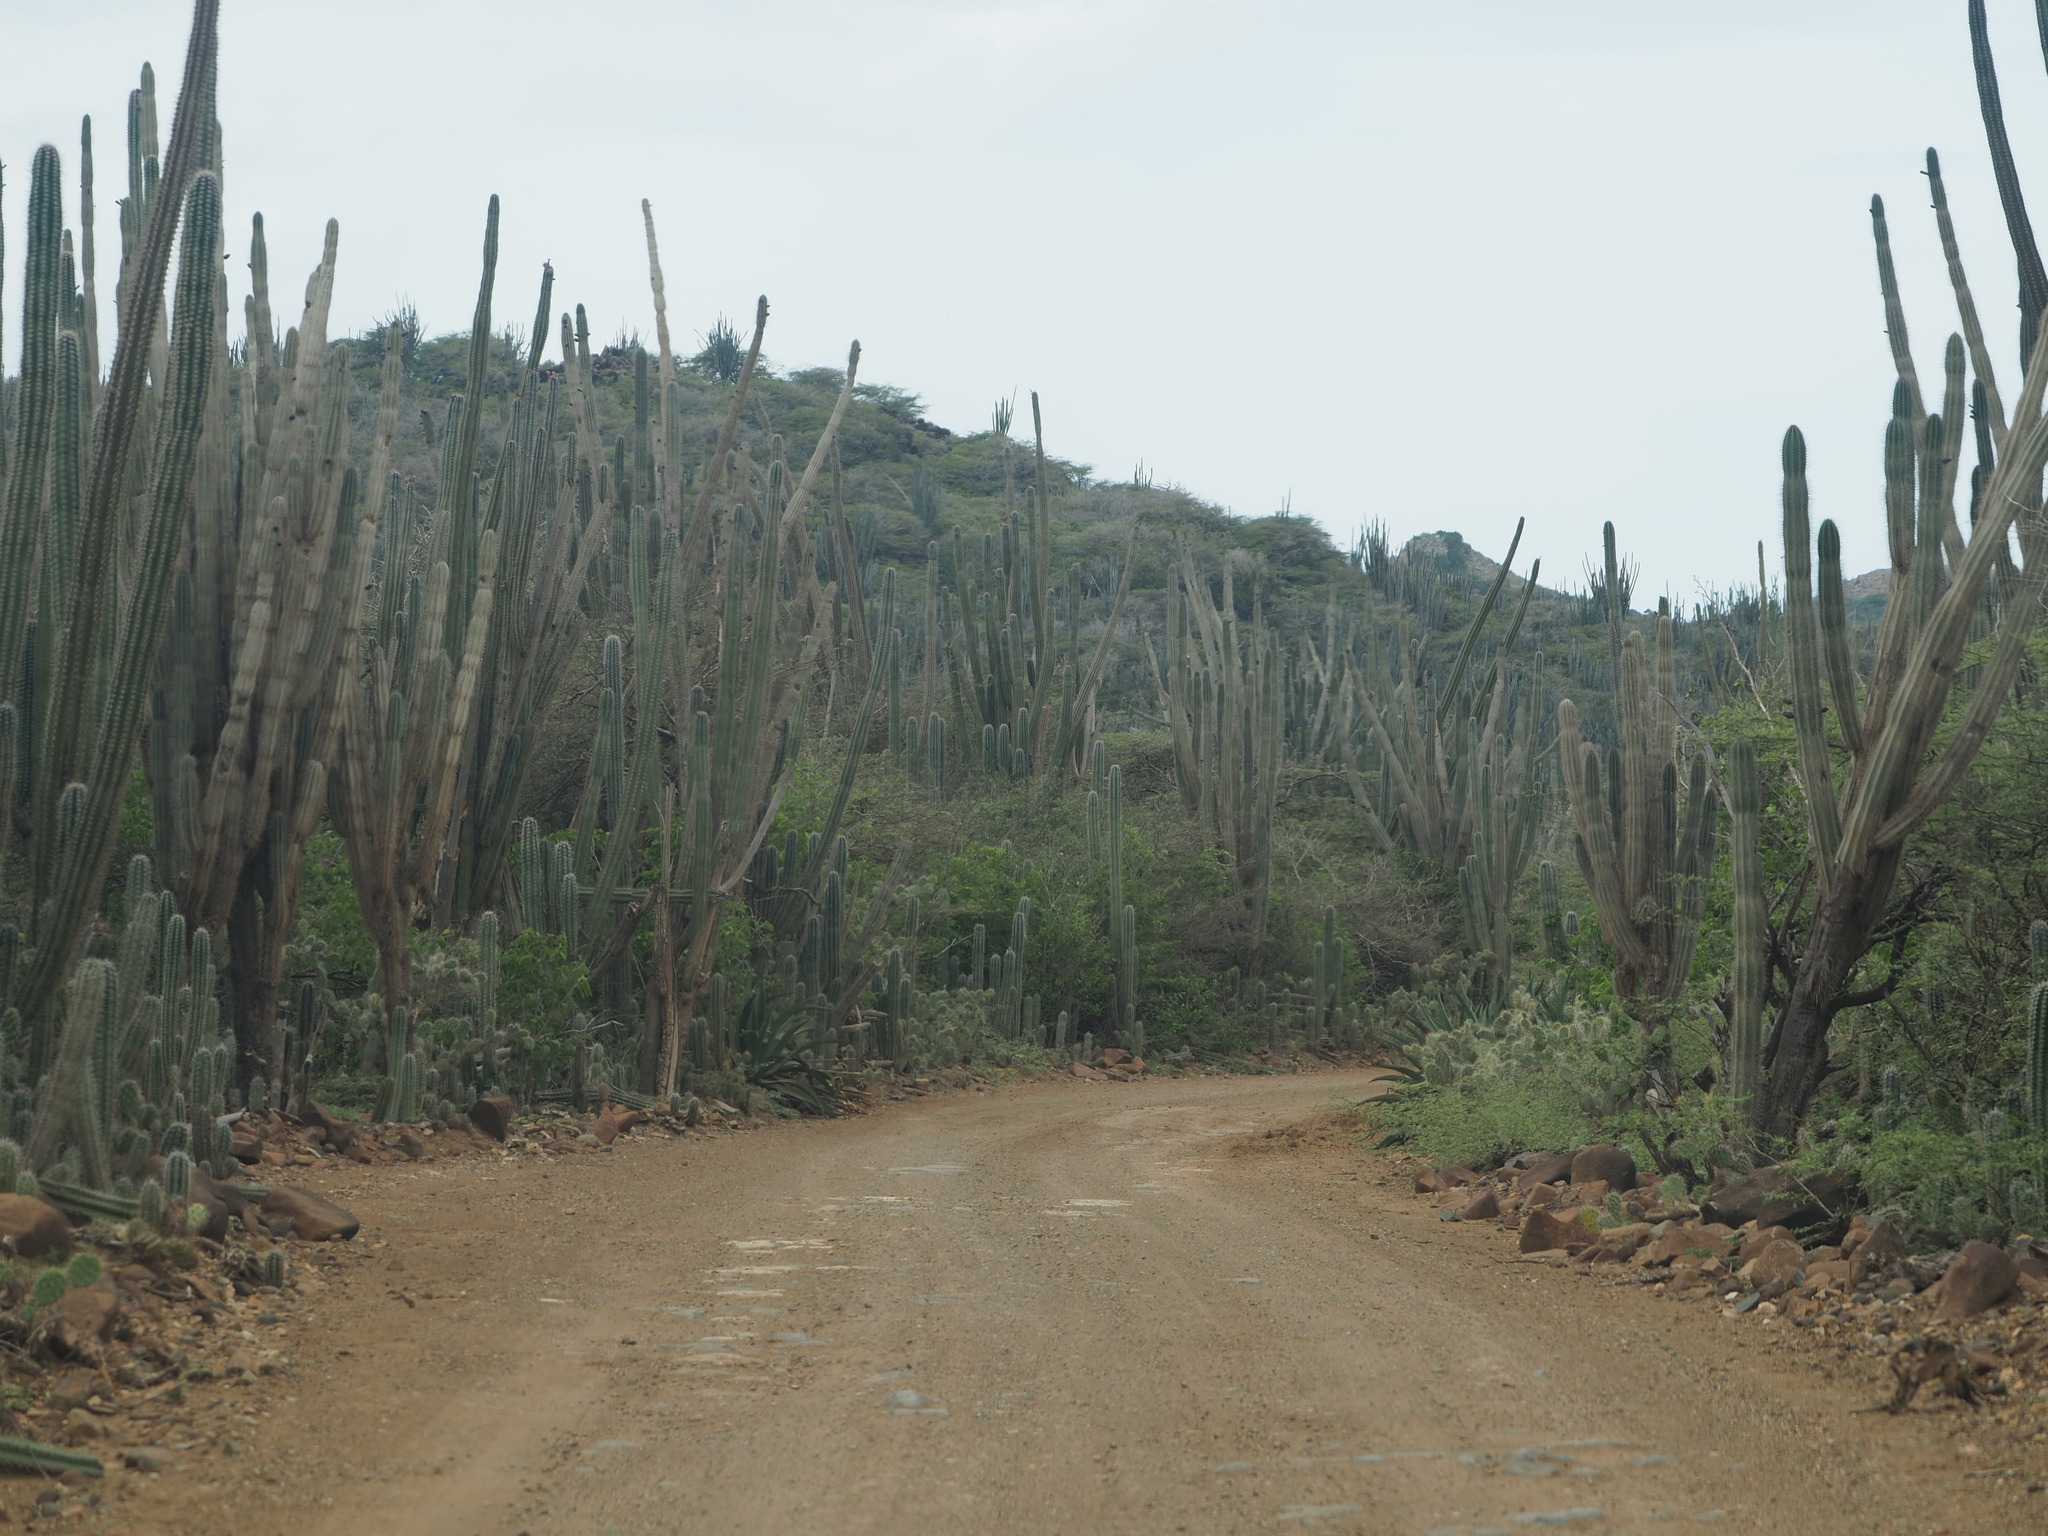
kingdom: Plantae
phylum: Tracheophyta
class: Magnoliopsida
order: Caryophyllales
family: Cactaceae
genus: Stenocereus
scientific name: Stenocereus griseus
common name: Tall candelabra cactus
